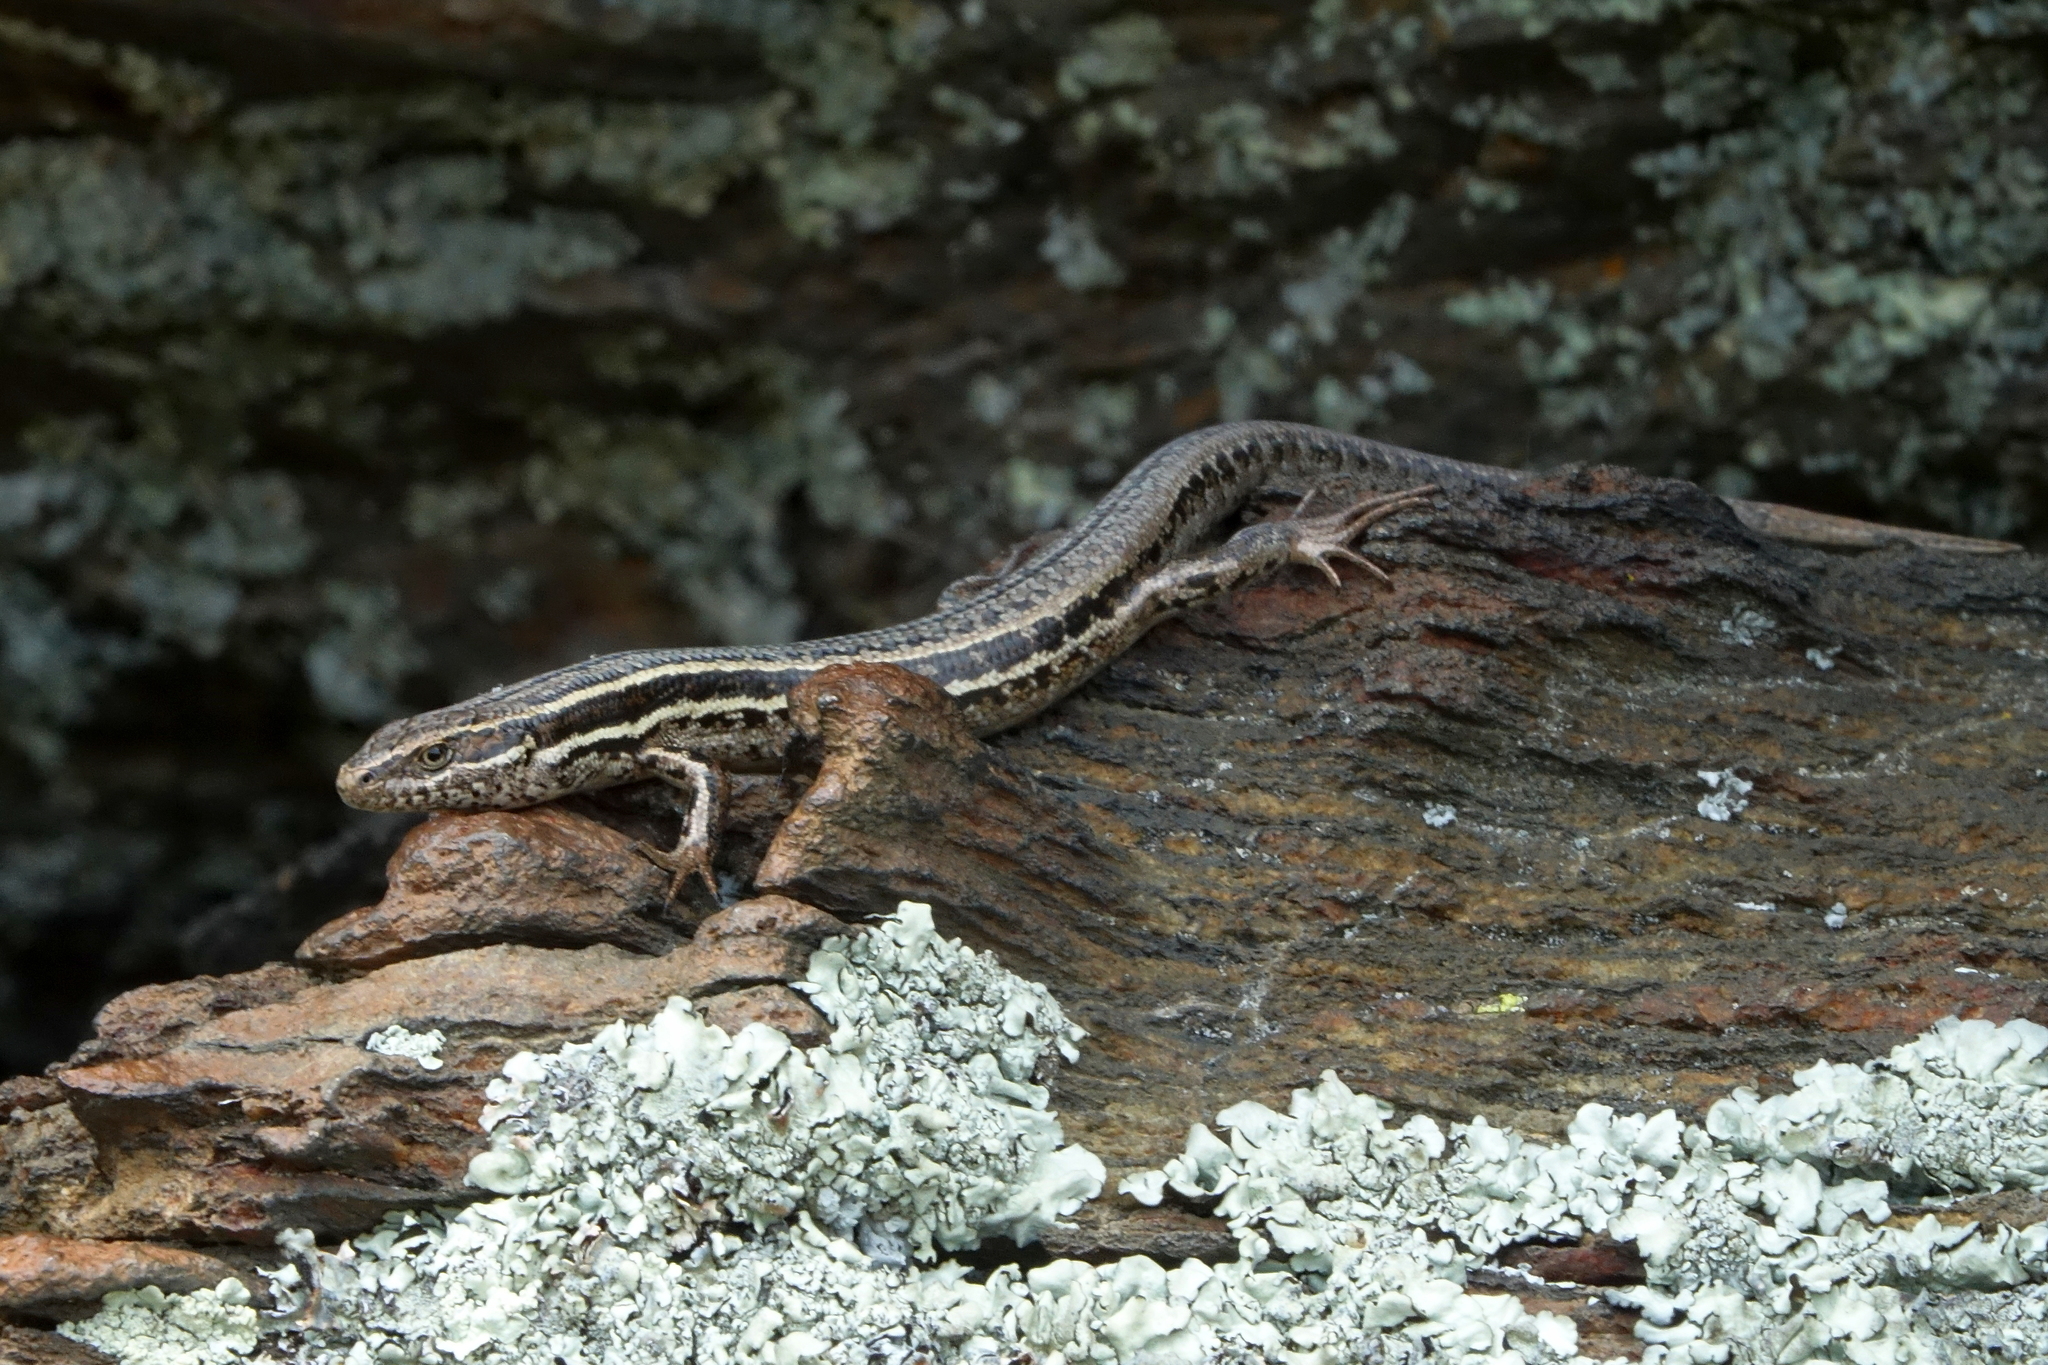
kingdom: Animalia
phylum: Chordata
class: Squamata
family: Scincidae
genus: Oligosoma
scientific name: Oligosoma maccanni
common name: Mccann’s skink
